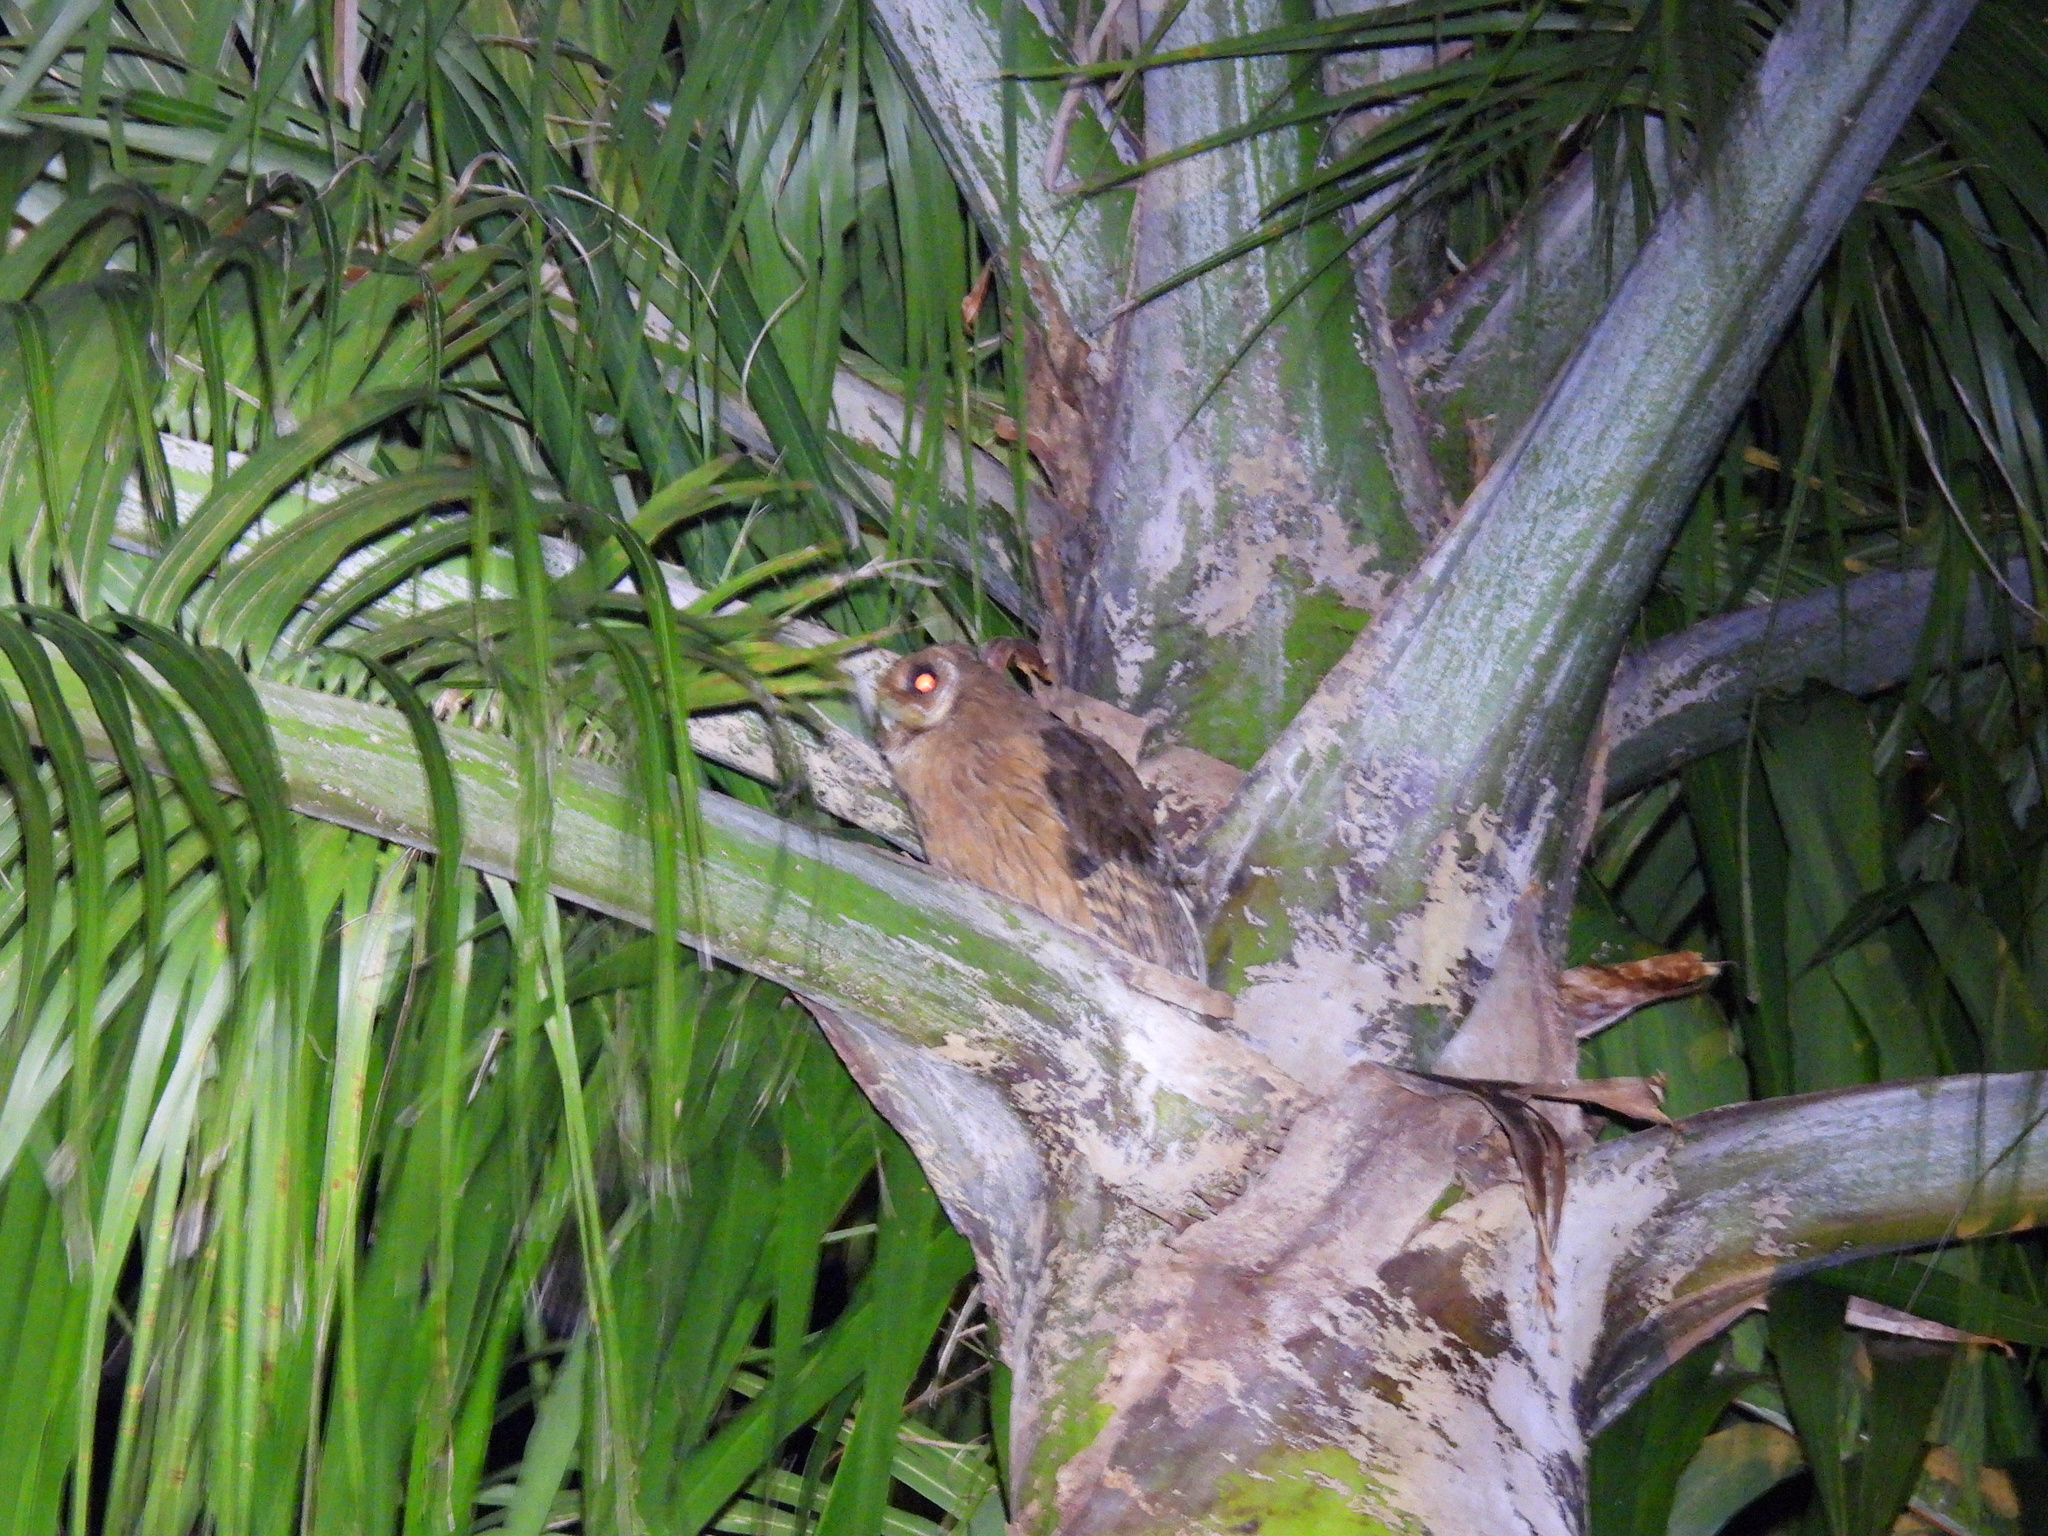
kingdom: Animalia
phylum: Chordata
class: Aves
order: Strigiformes
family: Strigidae
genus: Pseudoscops
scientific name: Pseudoscops grammicus
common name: Jamaican owl
